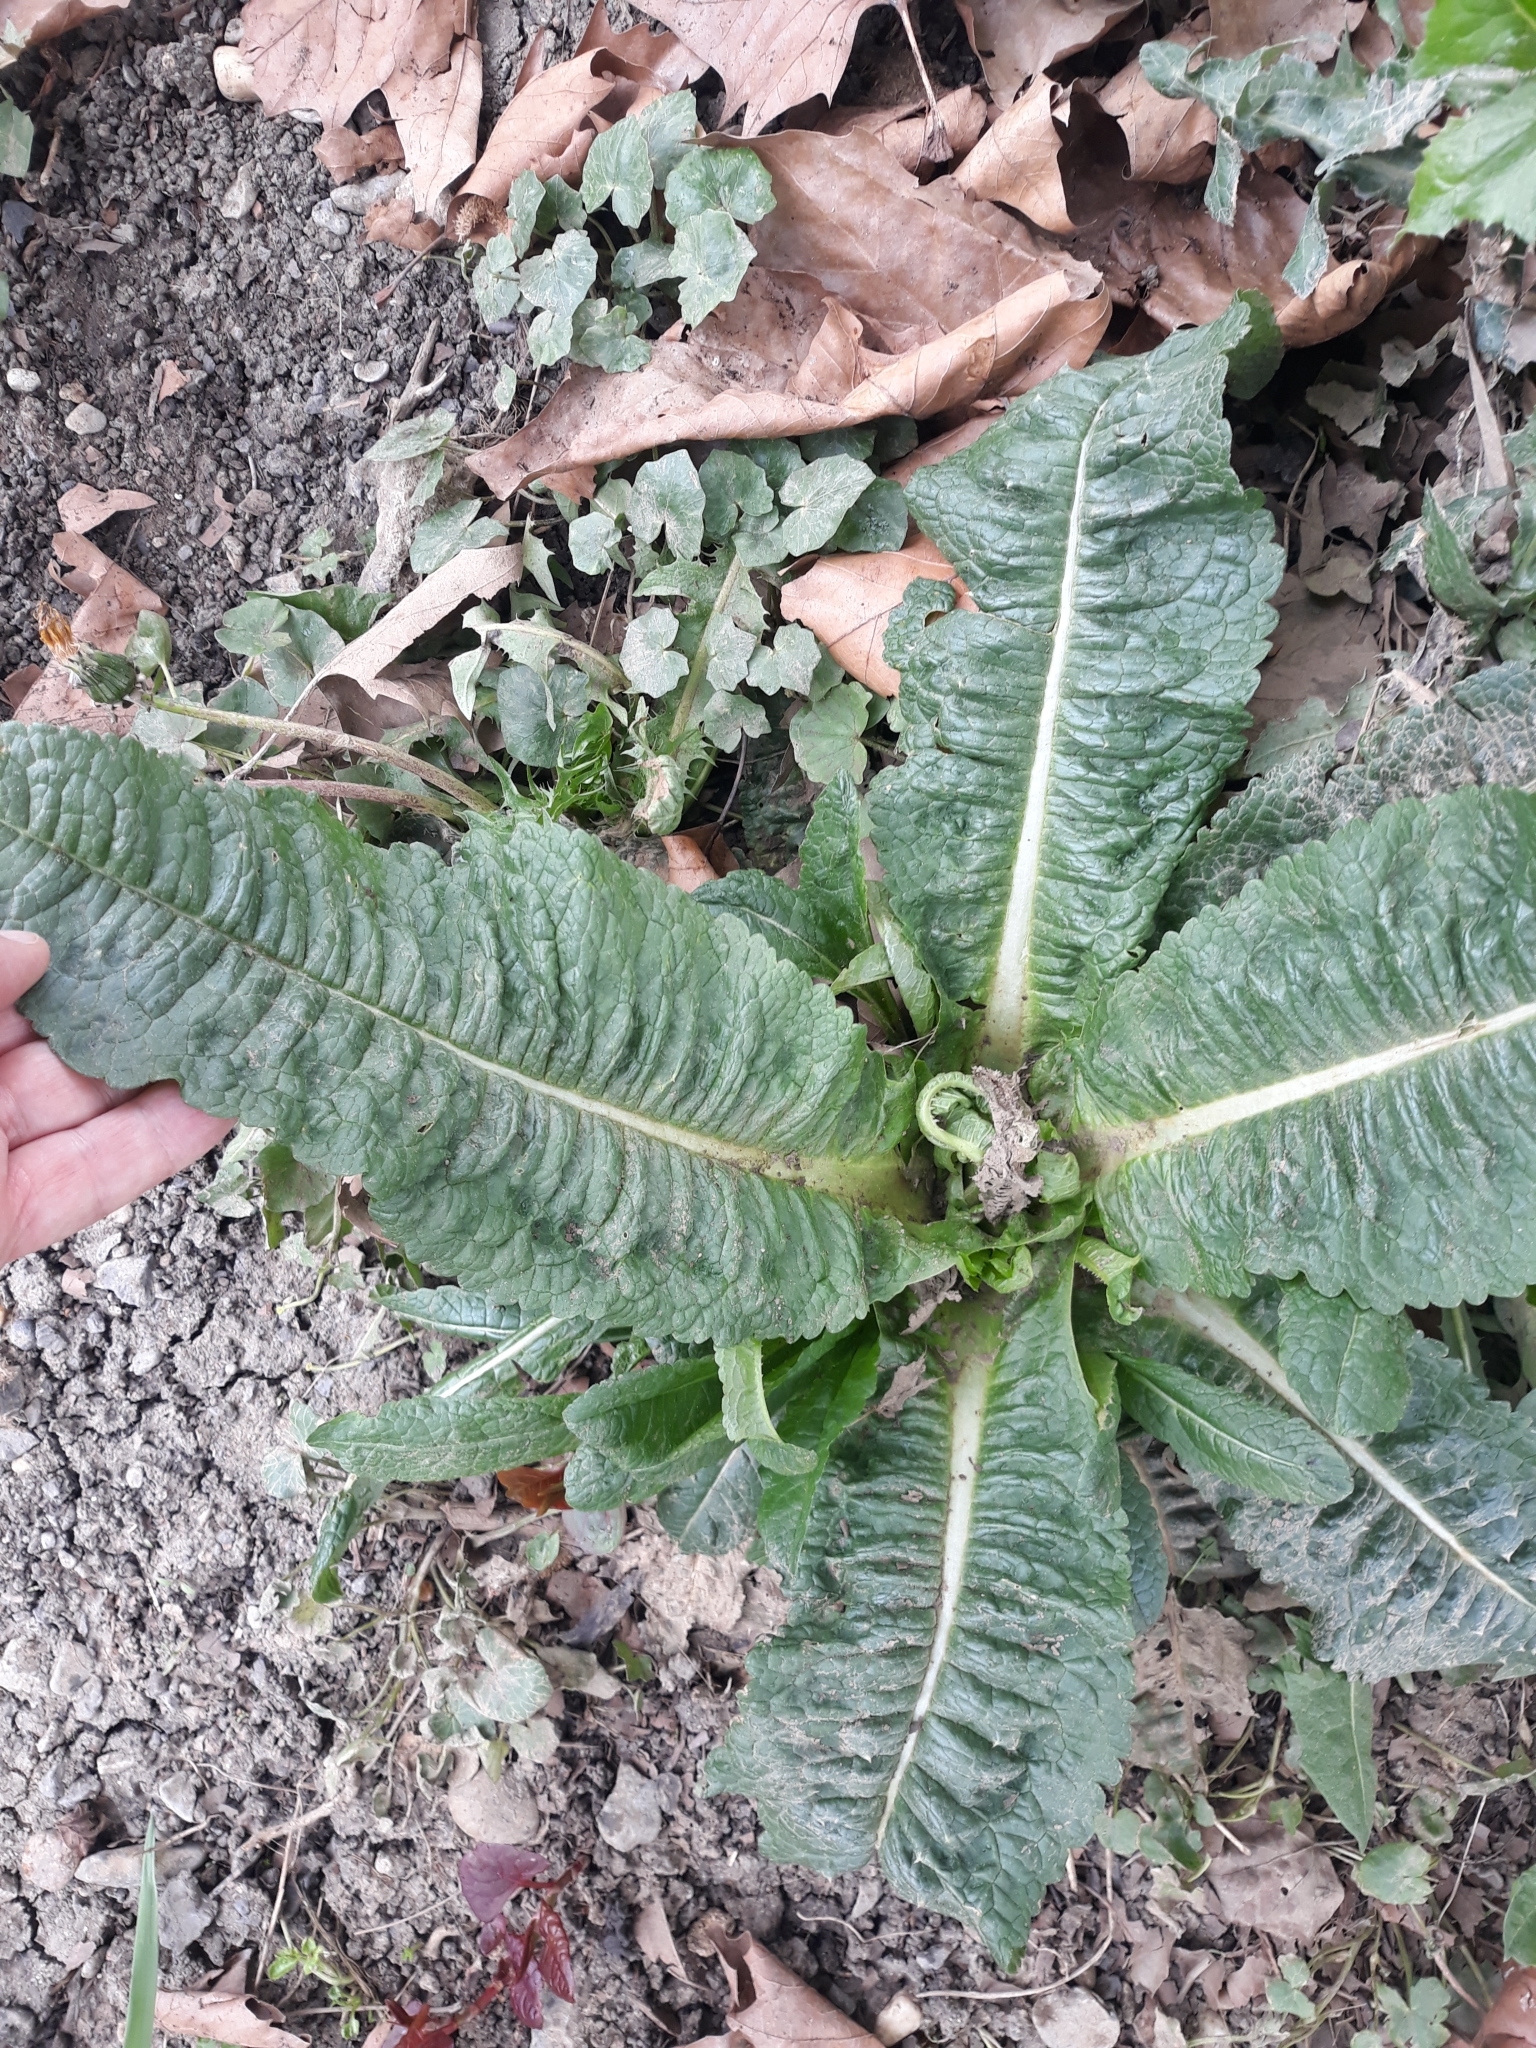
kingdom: Plantae
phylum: Tracheophyta
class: Magnoliopsida
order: Dipsacales
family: Caprifoliaceae
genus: Dipsacus
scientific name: Dipsacus fullonum
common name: Teasel
